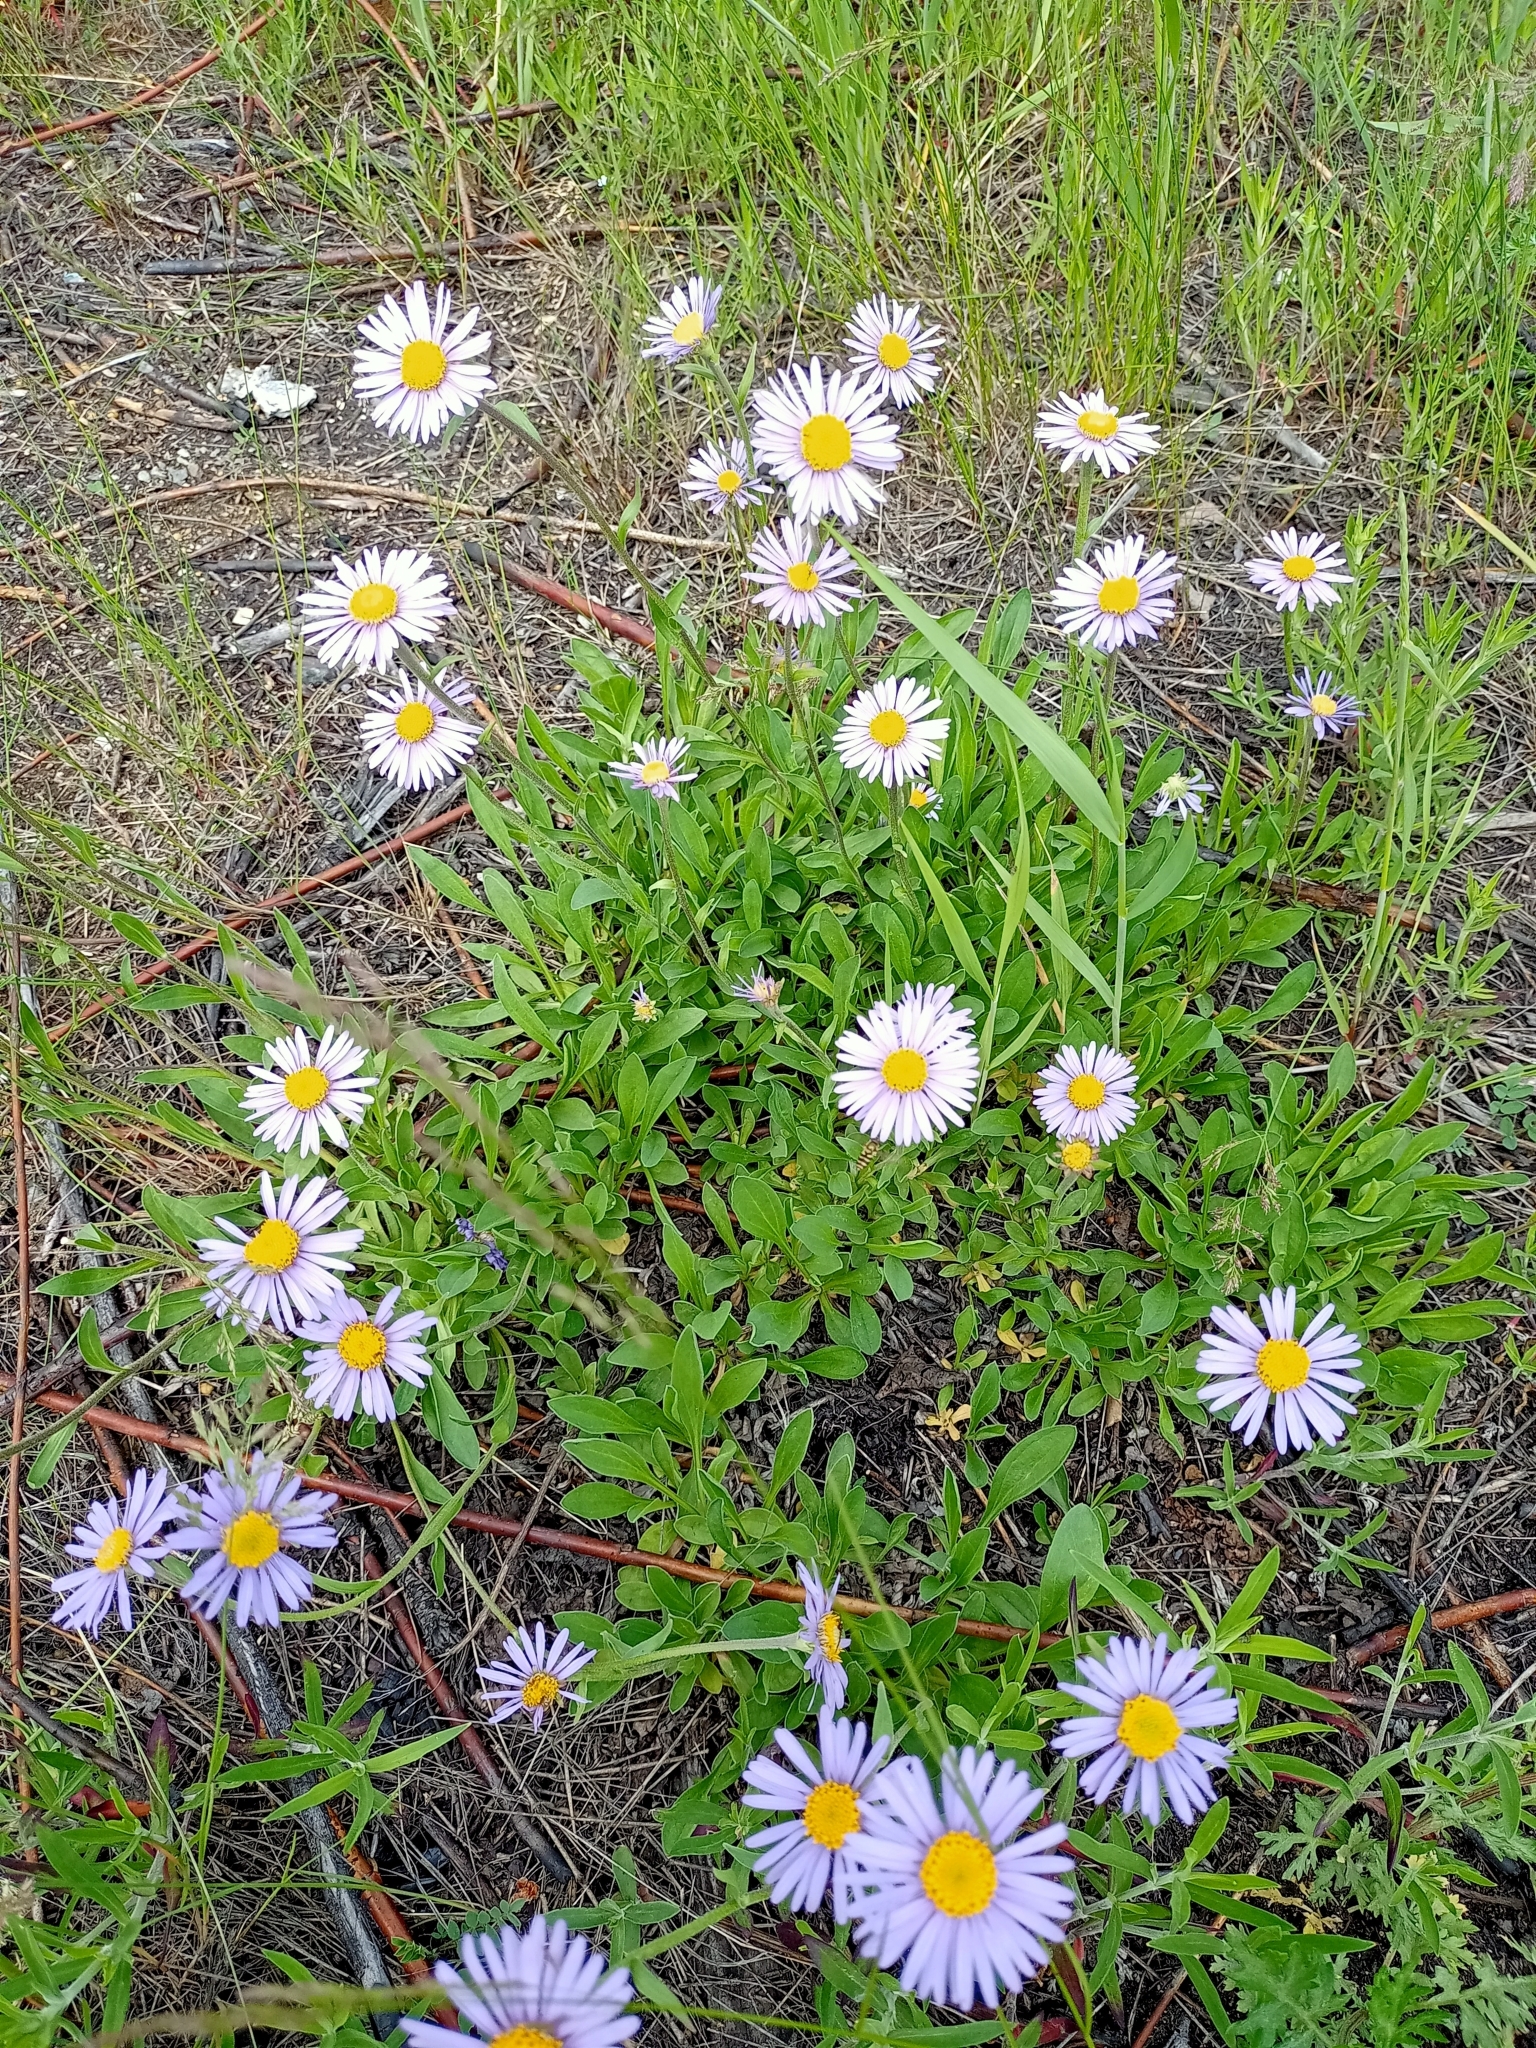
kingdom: Plantae
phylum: Tracheophyta
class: Magnoliopsida
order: Asterales
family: Asteraceae
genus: Aster
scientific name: Aster alpinus
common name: Alpine aster
